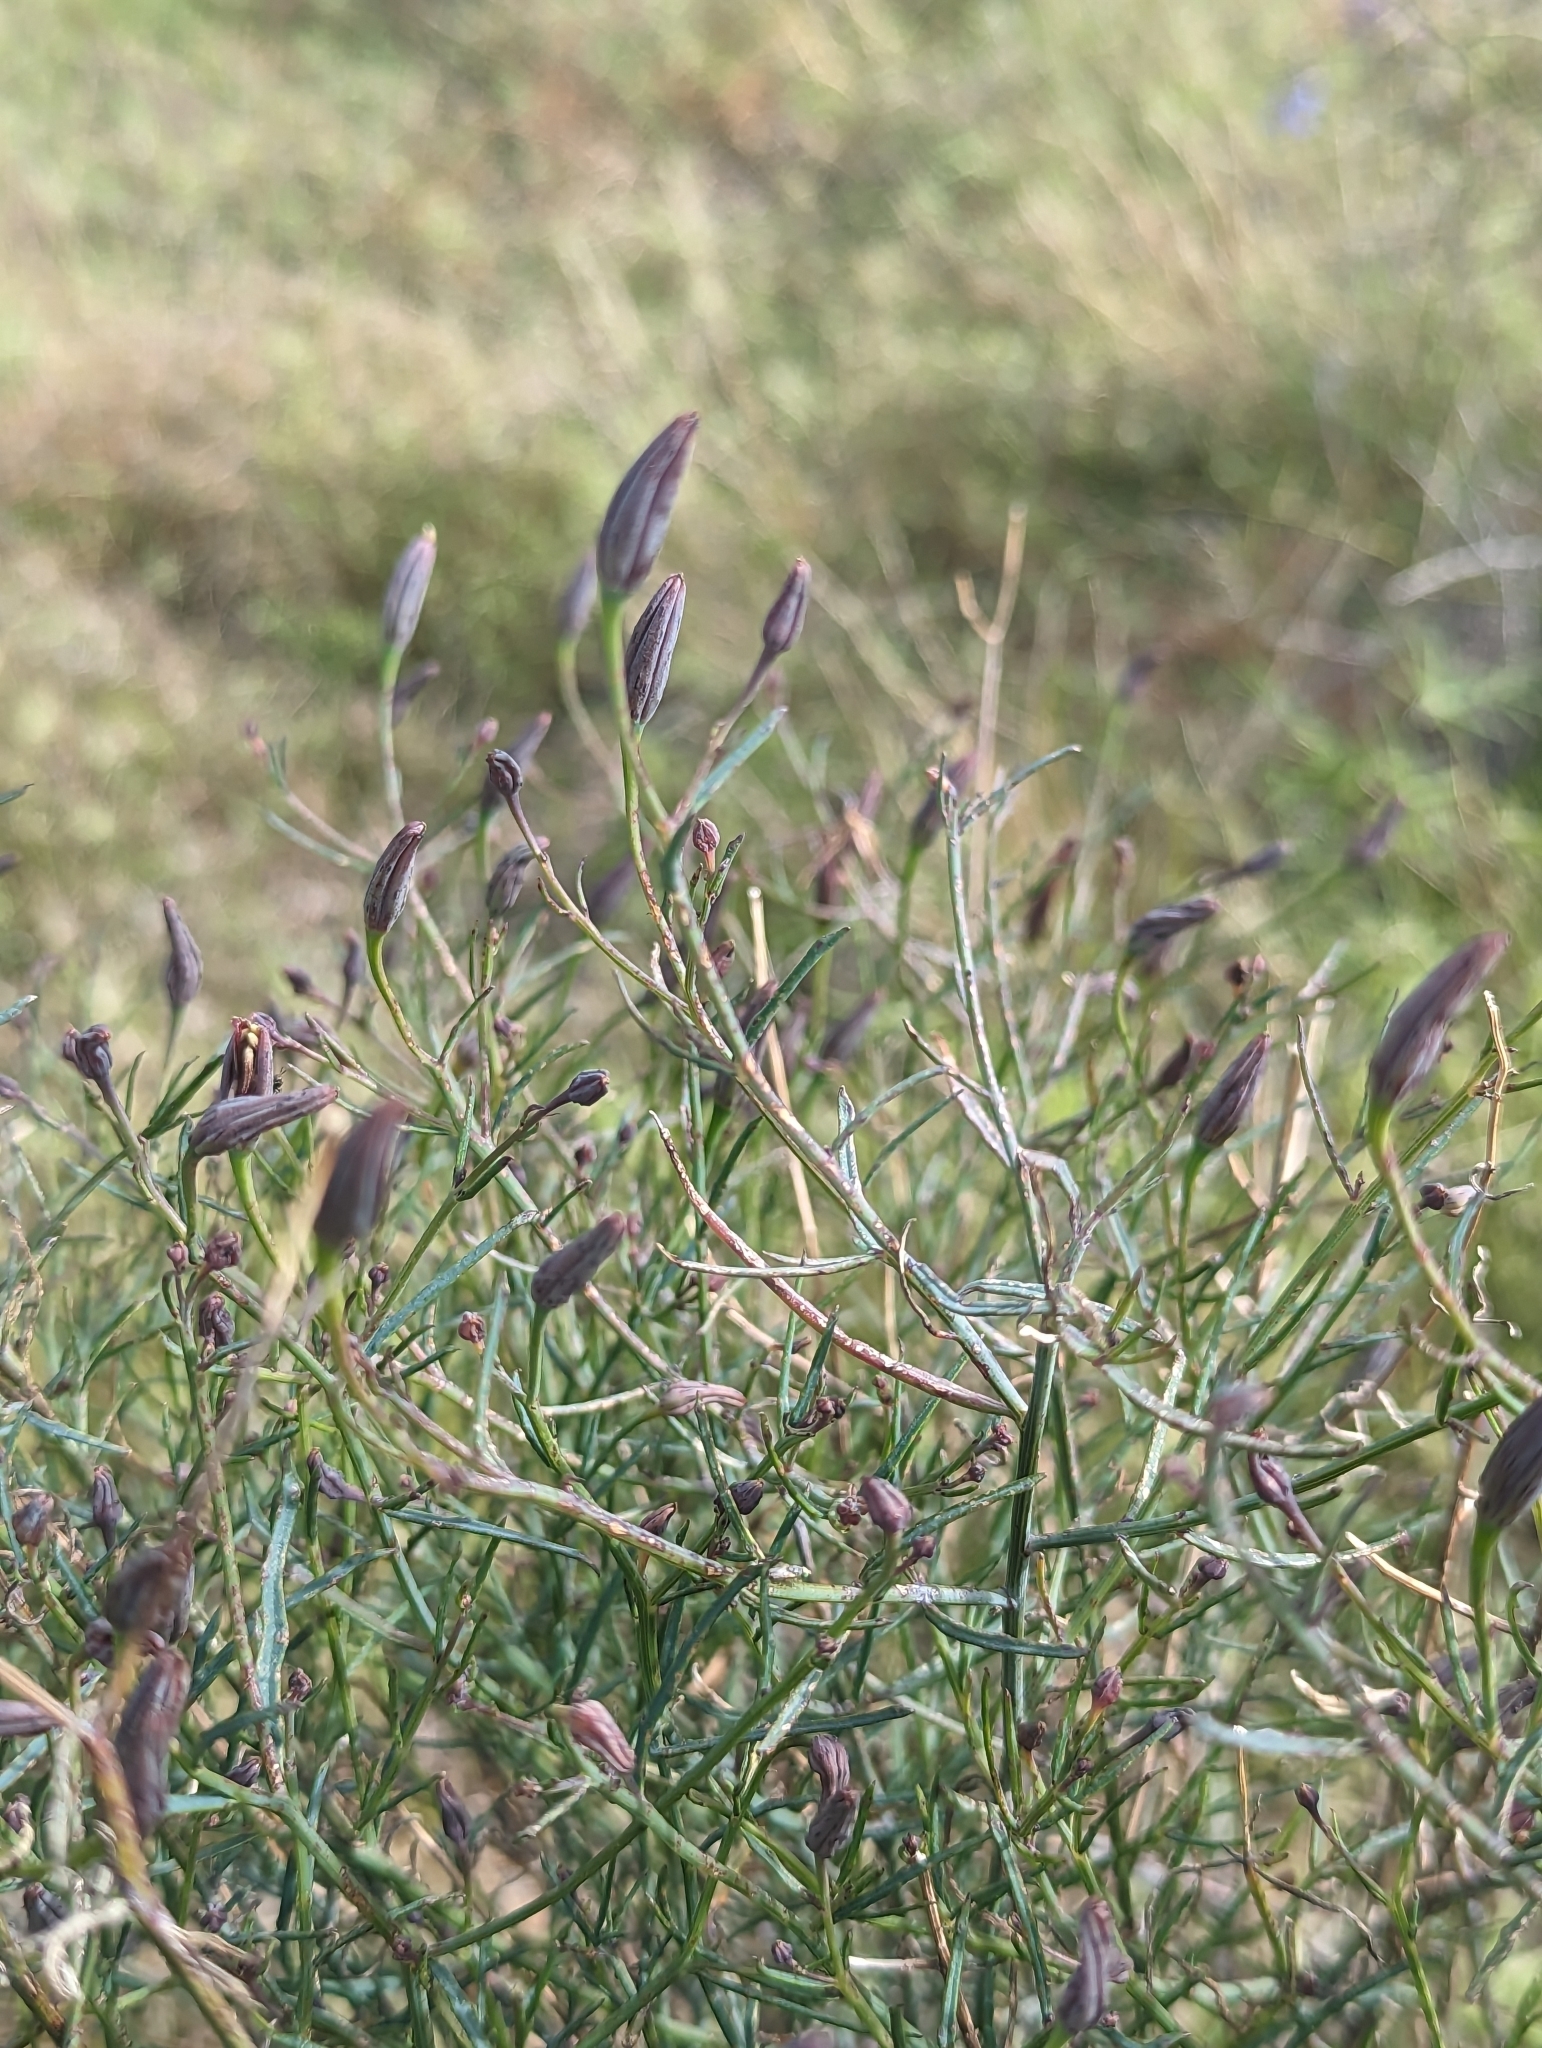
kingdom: Plantae
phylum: Tracheophyta
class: Magnoliopsida
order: Asterales
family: Asteraceae
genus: Porophyllum
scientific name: Porophyllum gracile
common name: Odora
